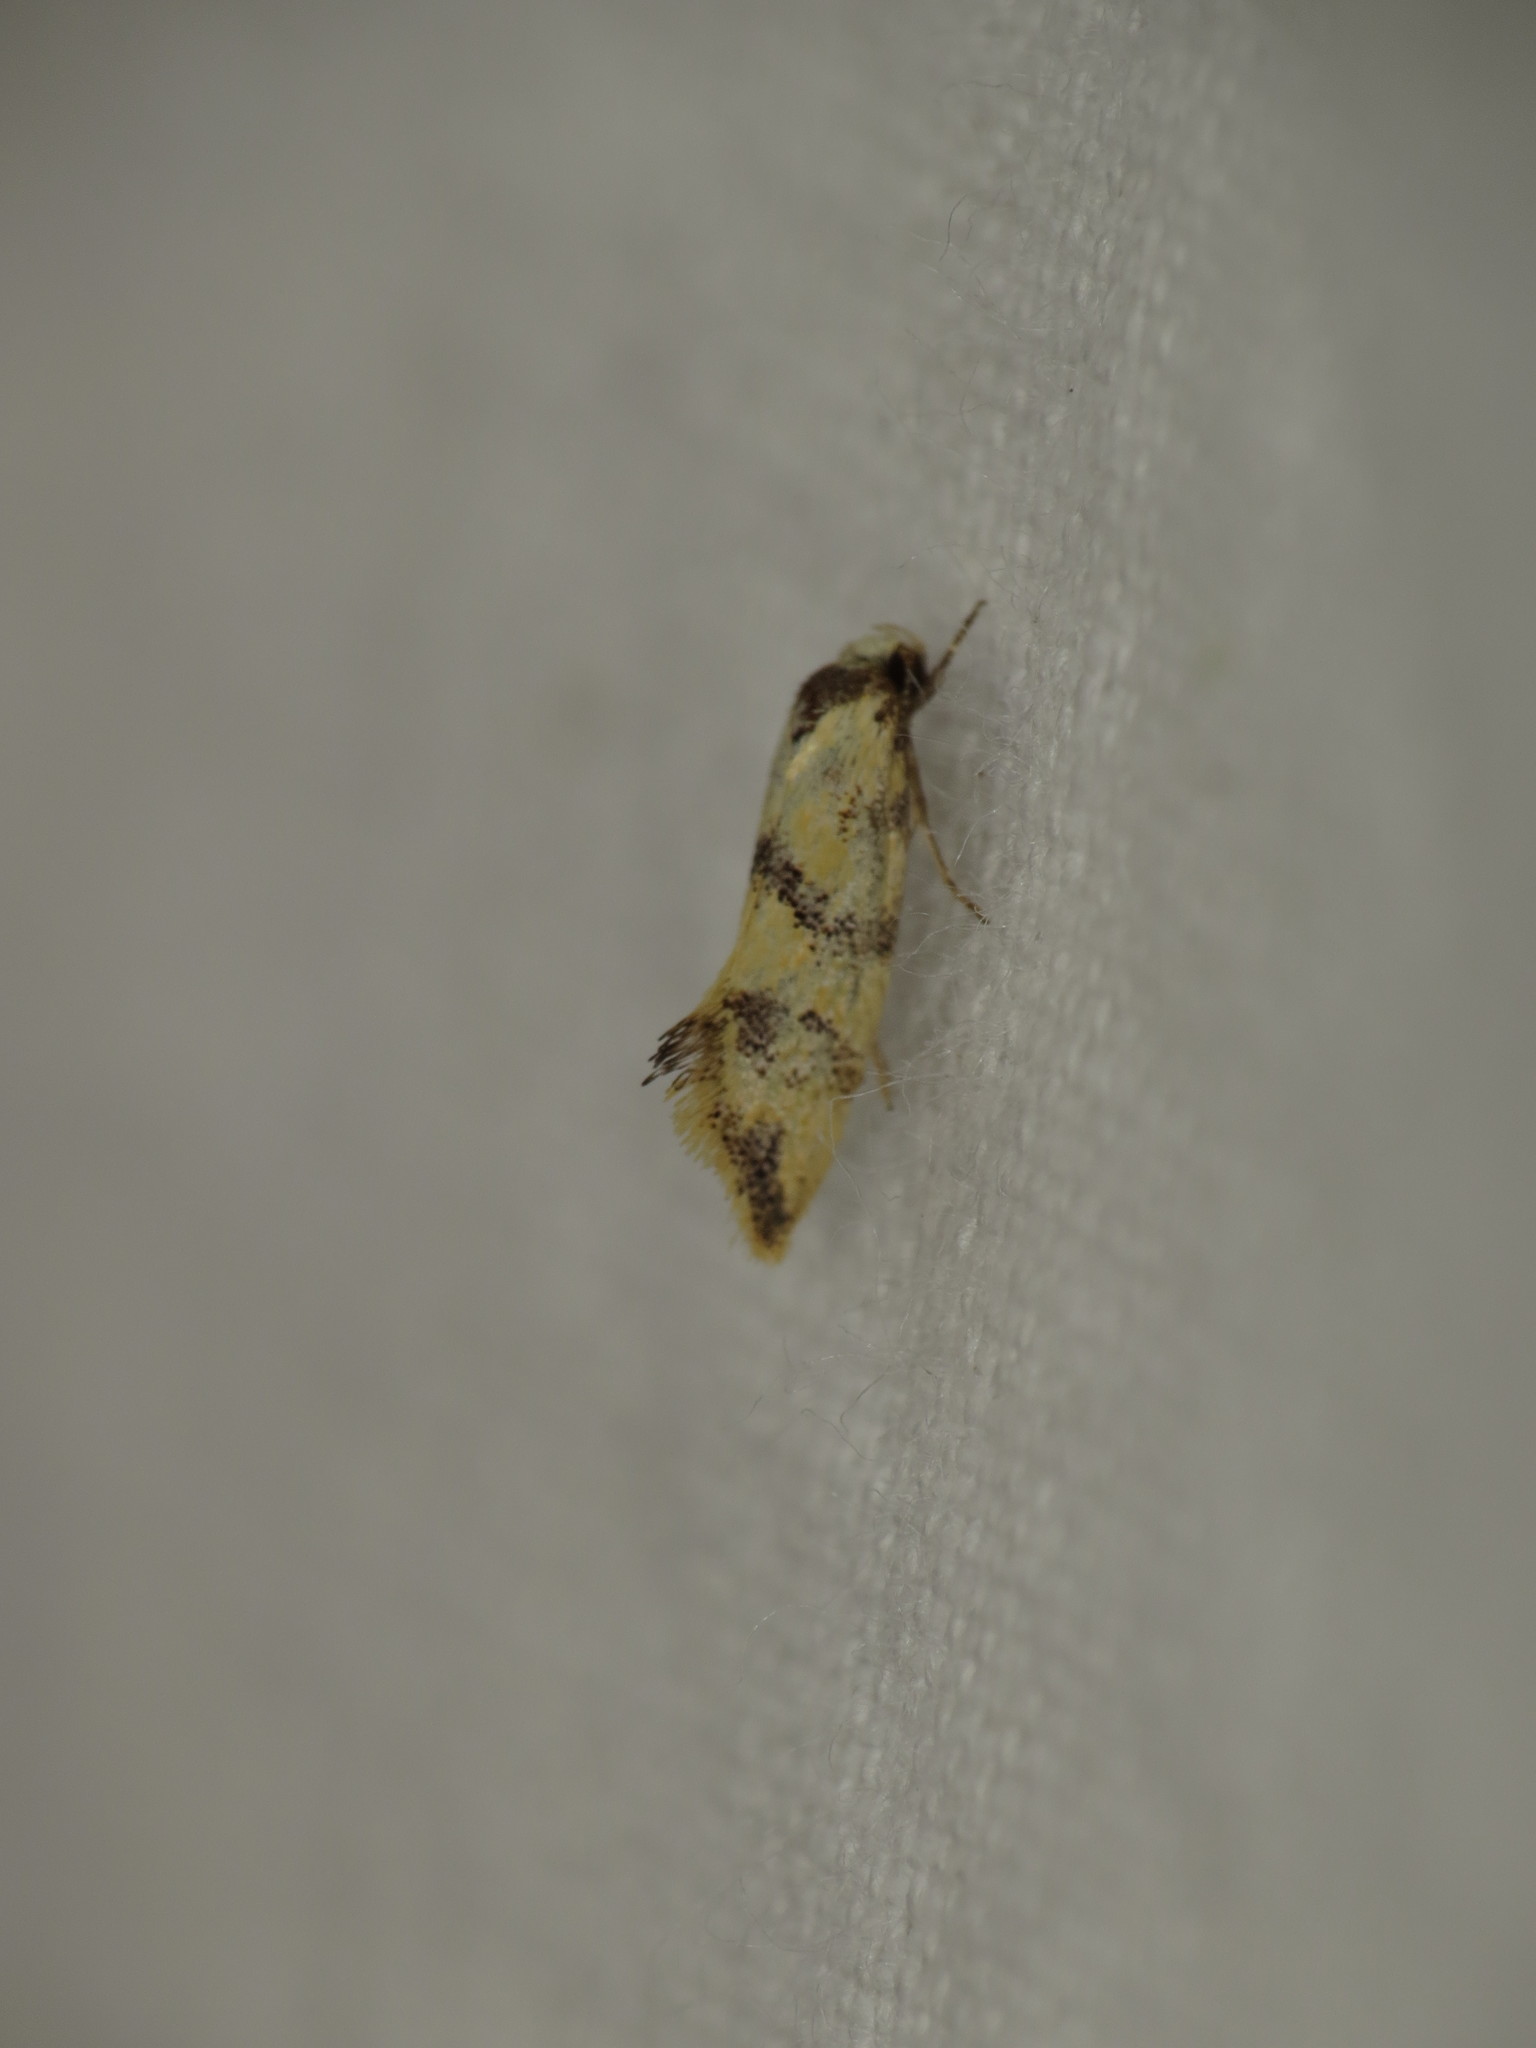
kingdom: Animalia
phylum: Arthropoda
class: Insecta
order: Lepidoptera
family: Oecophoridae
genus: Psaroxantha
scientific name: Psaroxantha calligenes
